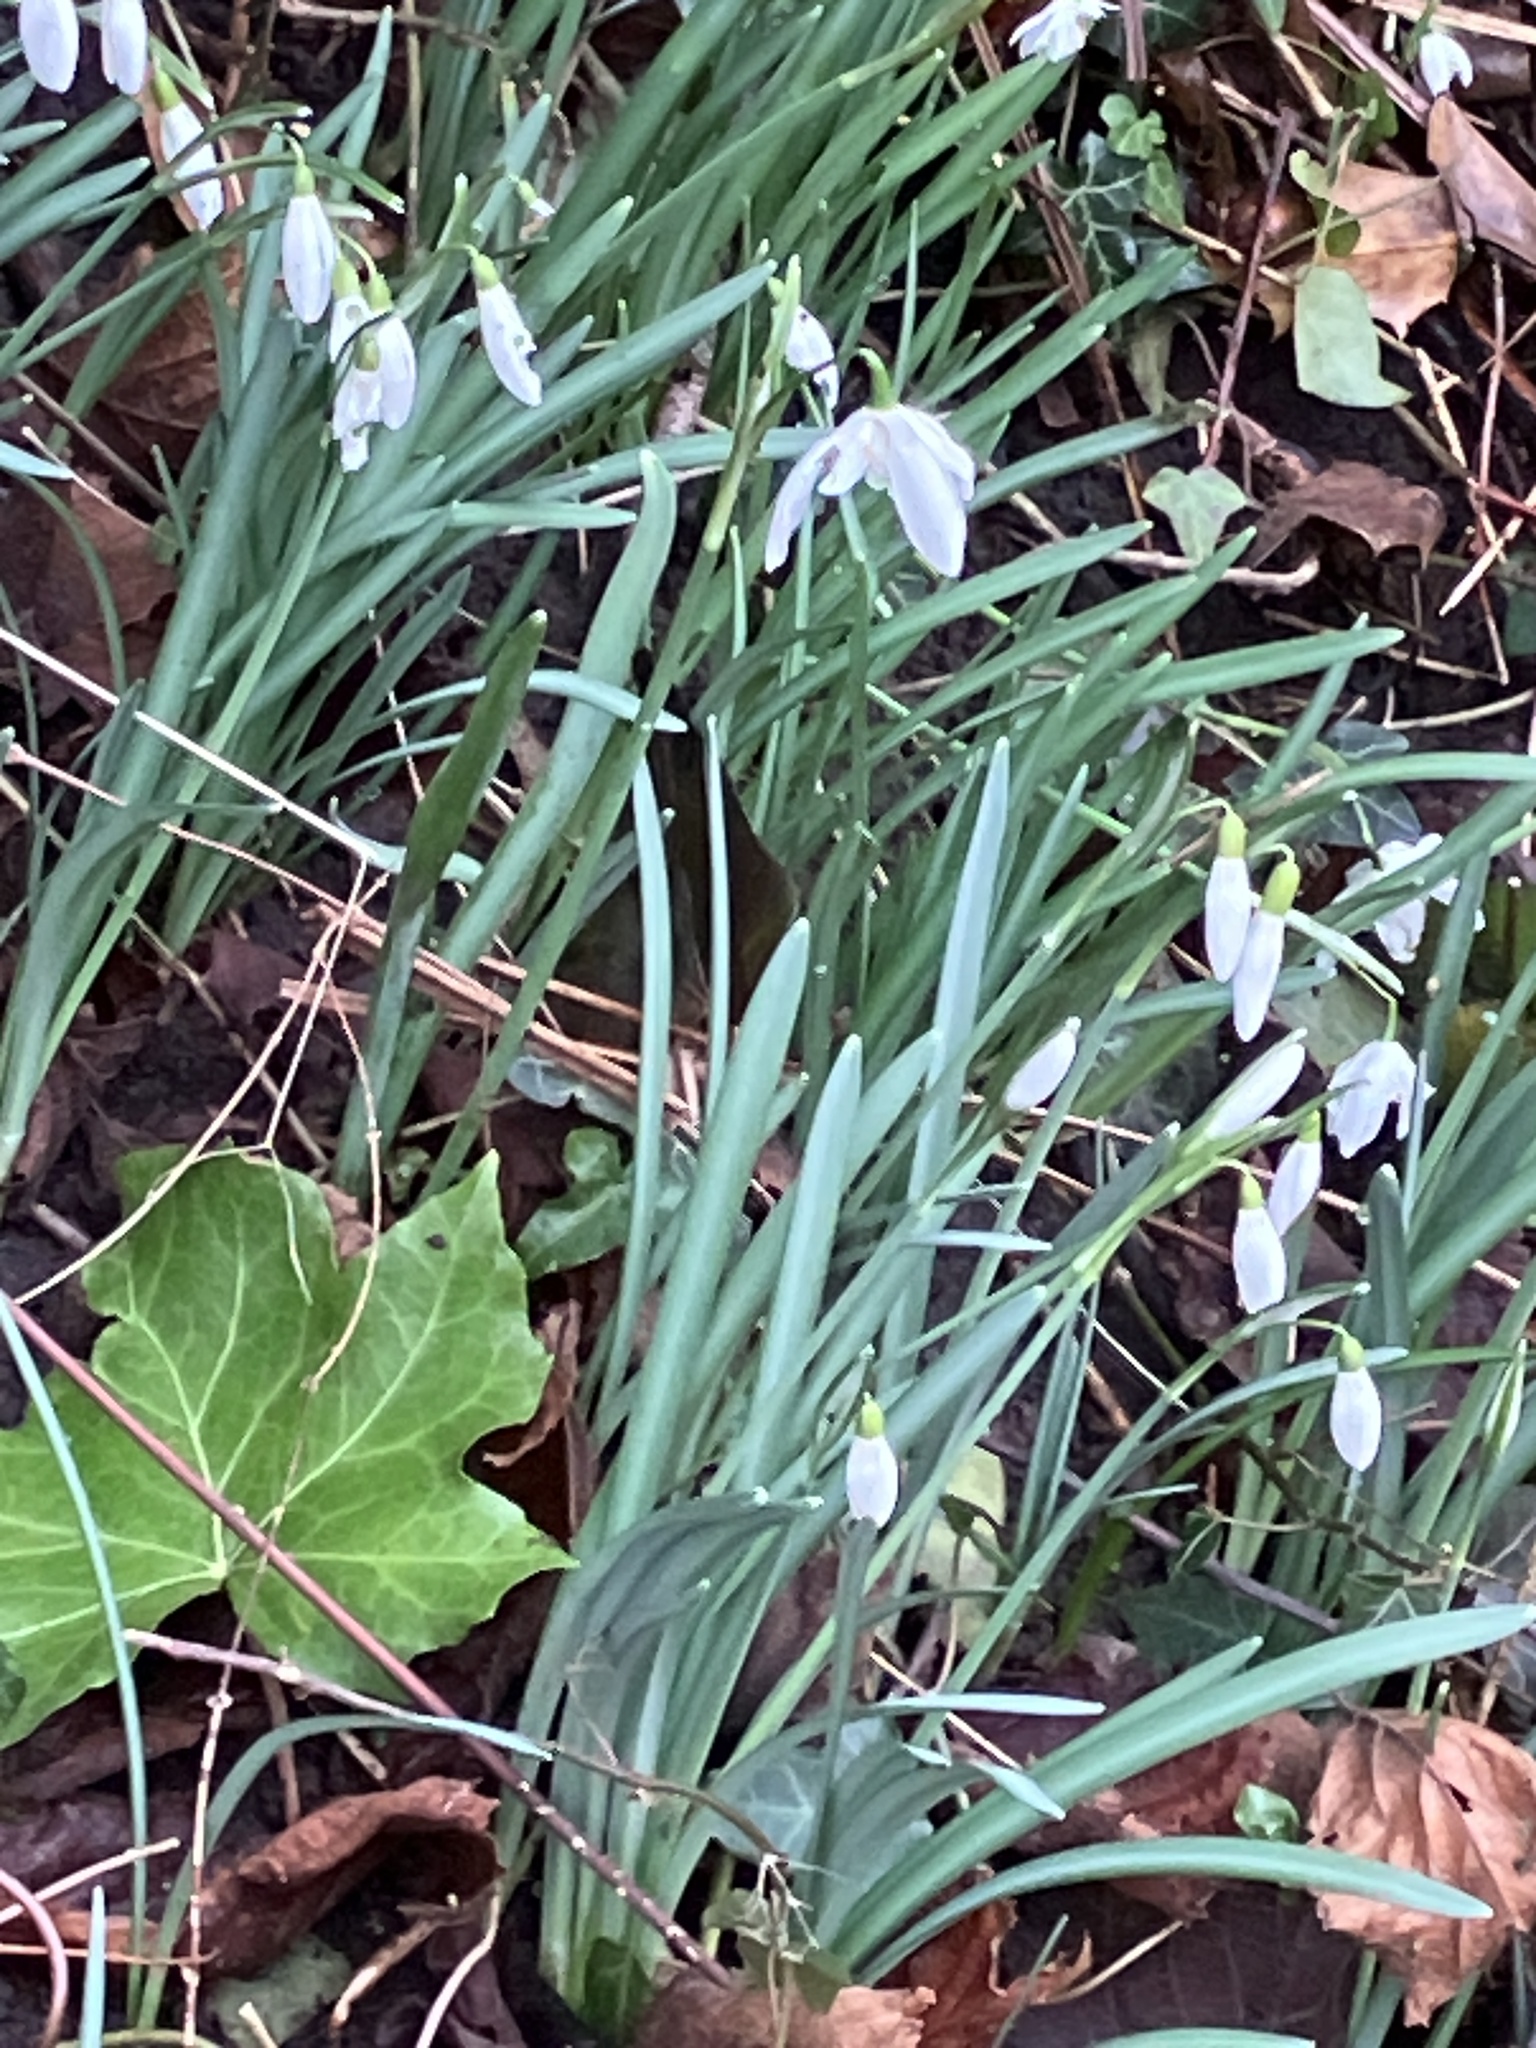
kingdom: Plantae
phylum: Tracheophyta
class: Liliopsida
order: Asparagales
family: Amaryllidaceae
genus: Galanthus
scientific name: Galanthus nivalis
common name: Snowdrop
